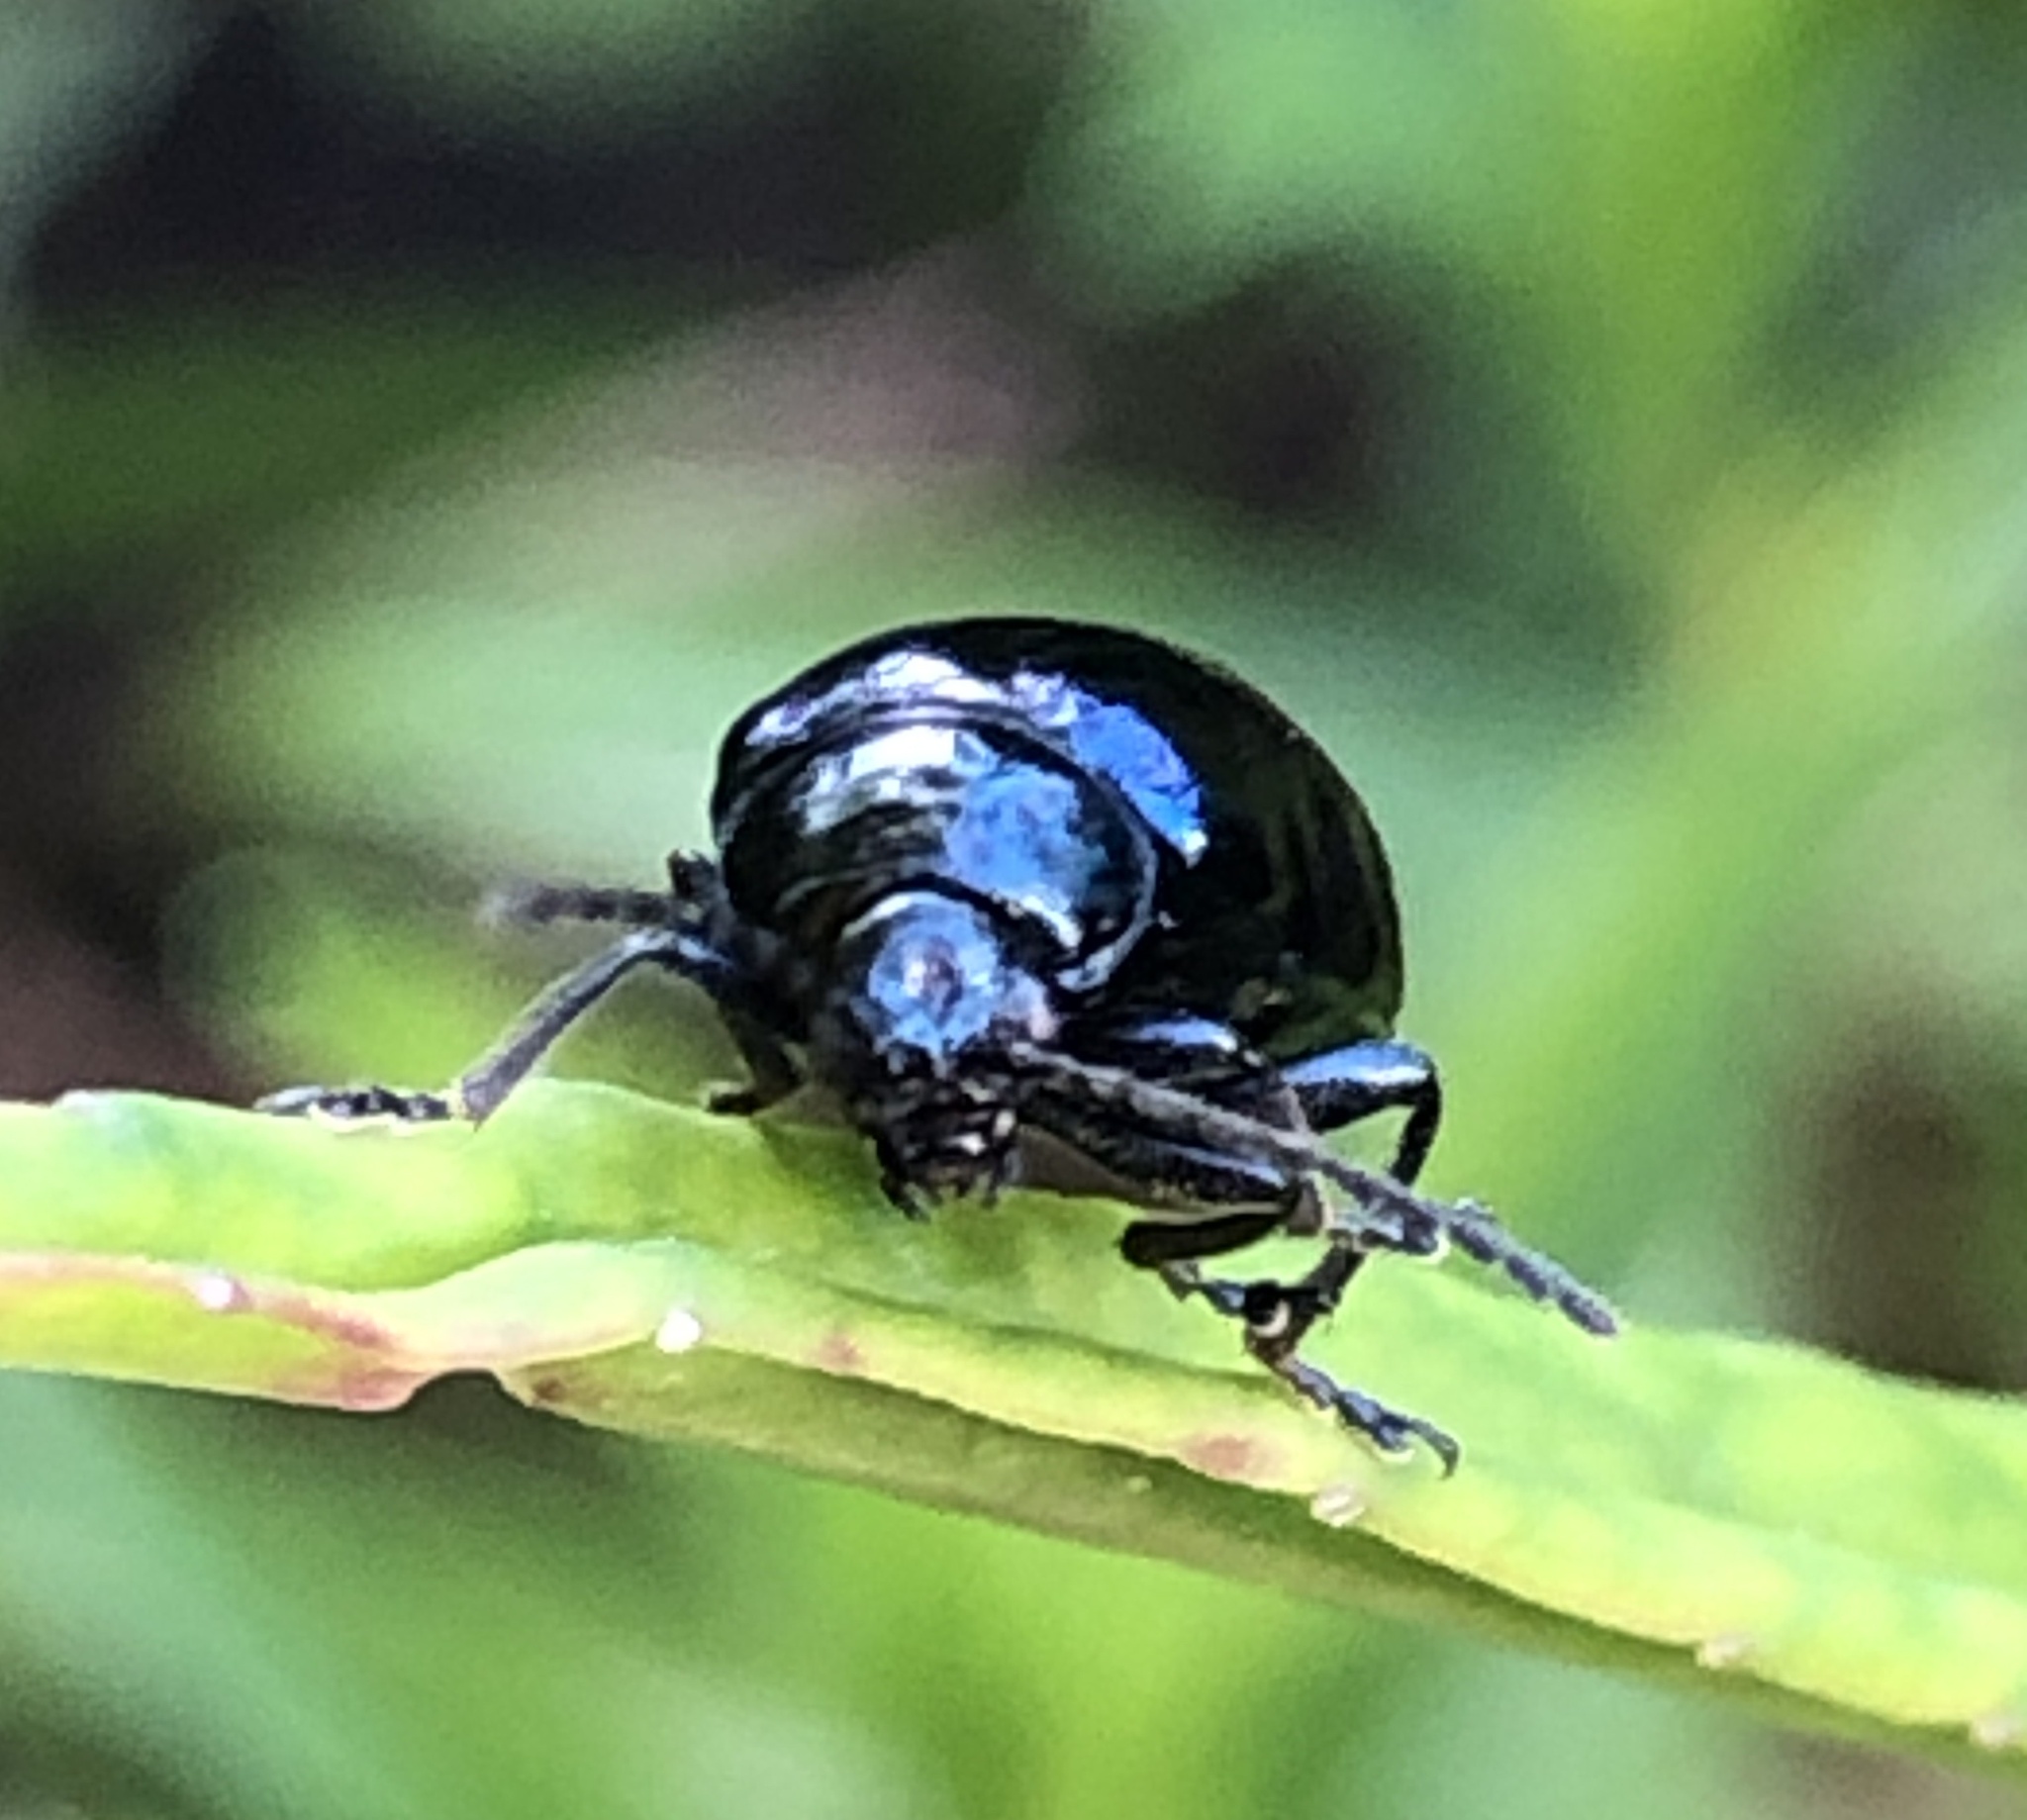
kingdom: Animalia
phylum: Arthropoda
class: Insecta
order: Coleoptera
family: Chrysomelidae
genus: Agelastica
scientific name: Agelastica alni
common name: Alder leaf beetle
